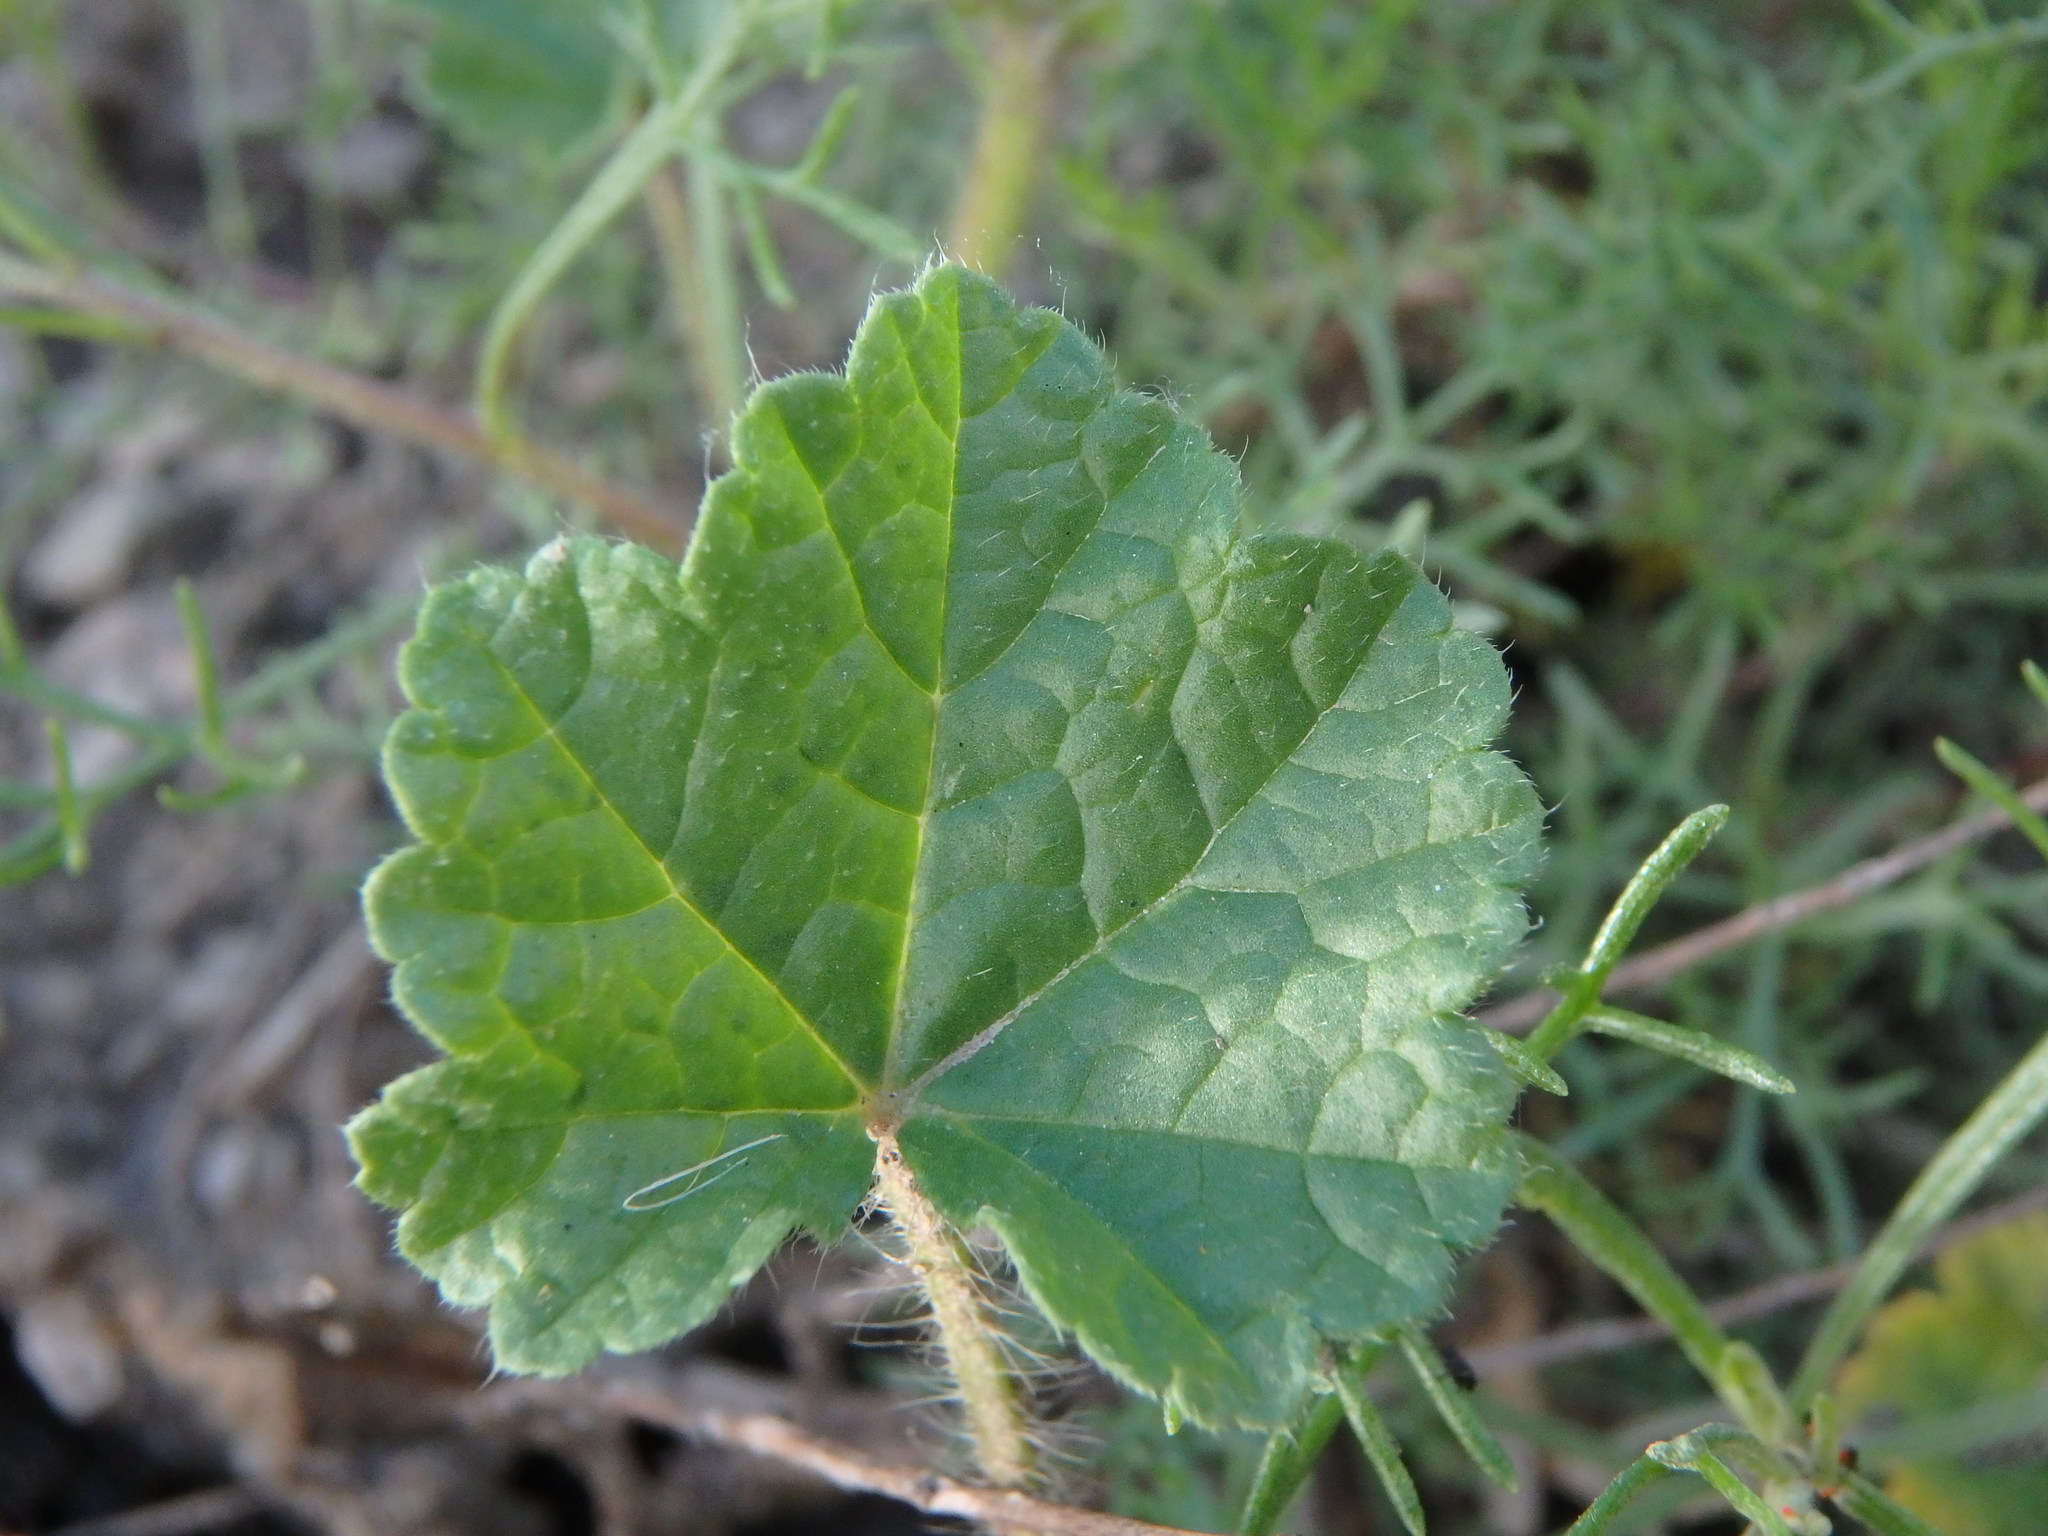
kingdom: Plantae
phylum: Tracheophyta
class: Magnoliopsida
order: Malvales
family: Malvaceae
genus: Althaea
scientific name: Althaea hirsuta
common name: Rough marsh-mallow
